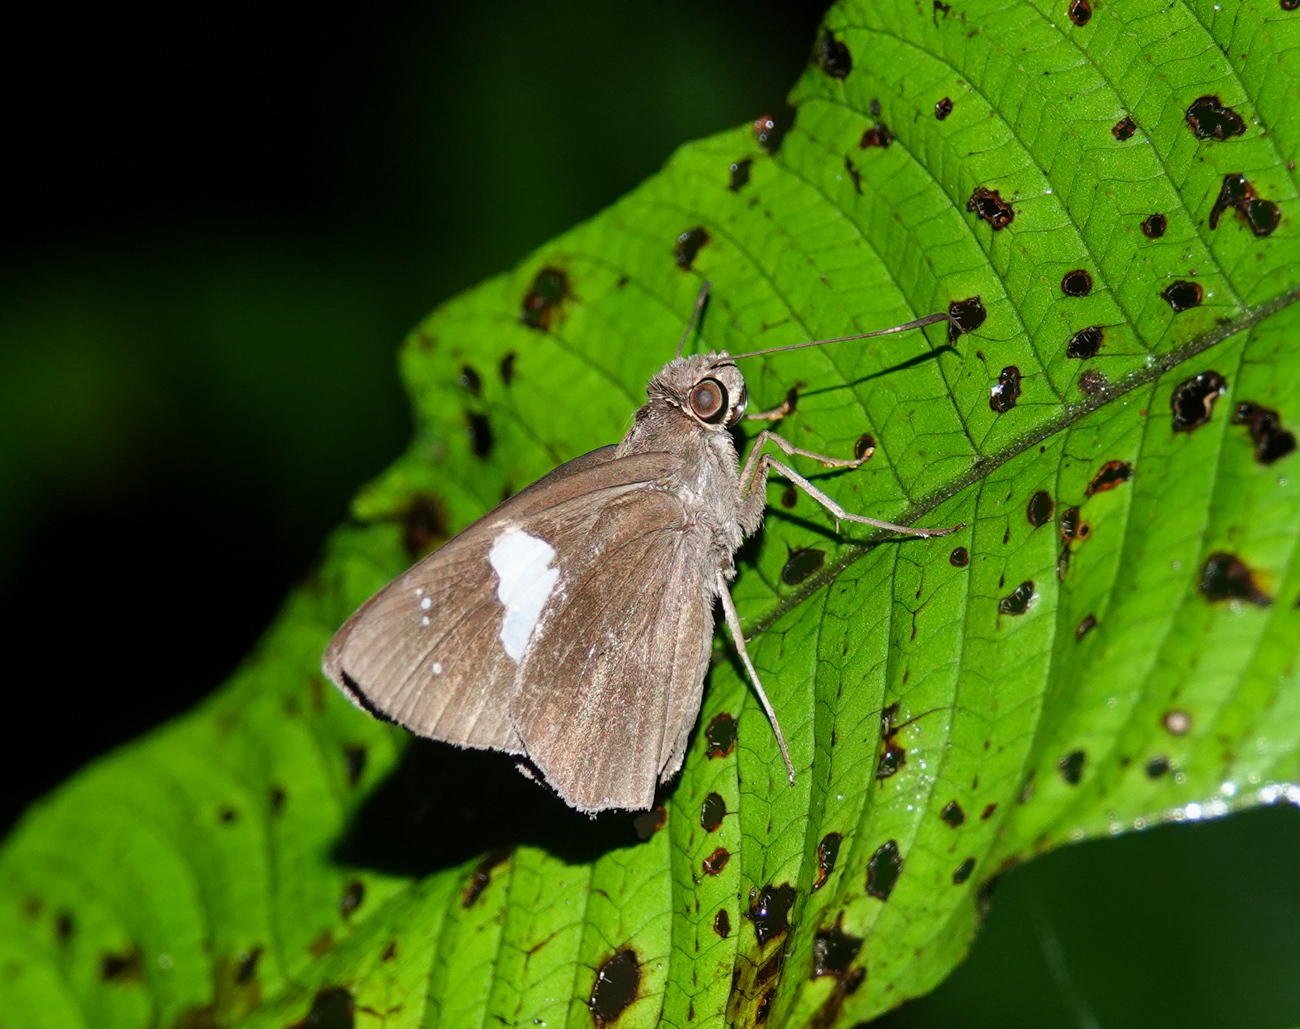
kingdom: Animalia
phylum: Arthropoda
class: Insecta
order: Lepidoptera
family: Hesperiidae
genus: Notocrypta
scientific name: Notocrypta feisthamelii
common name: Spotted demon
